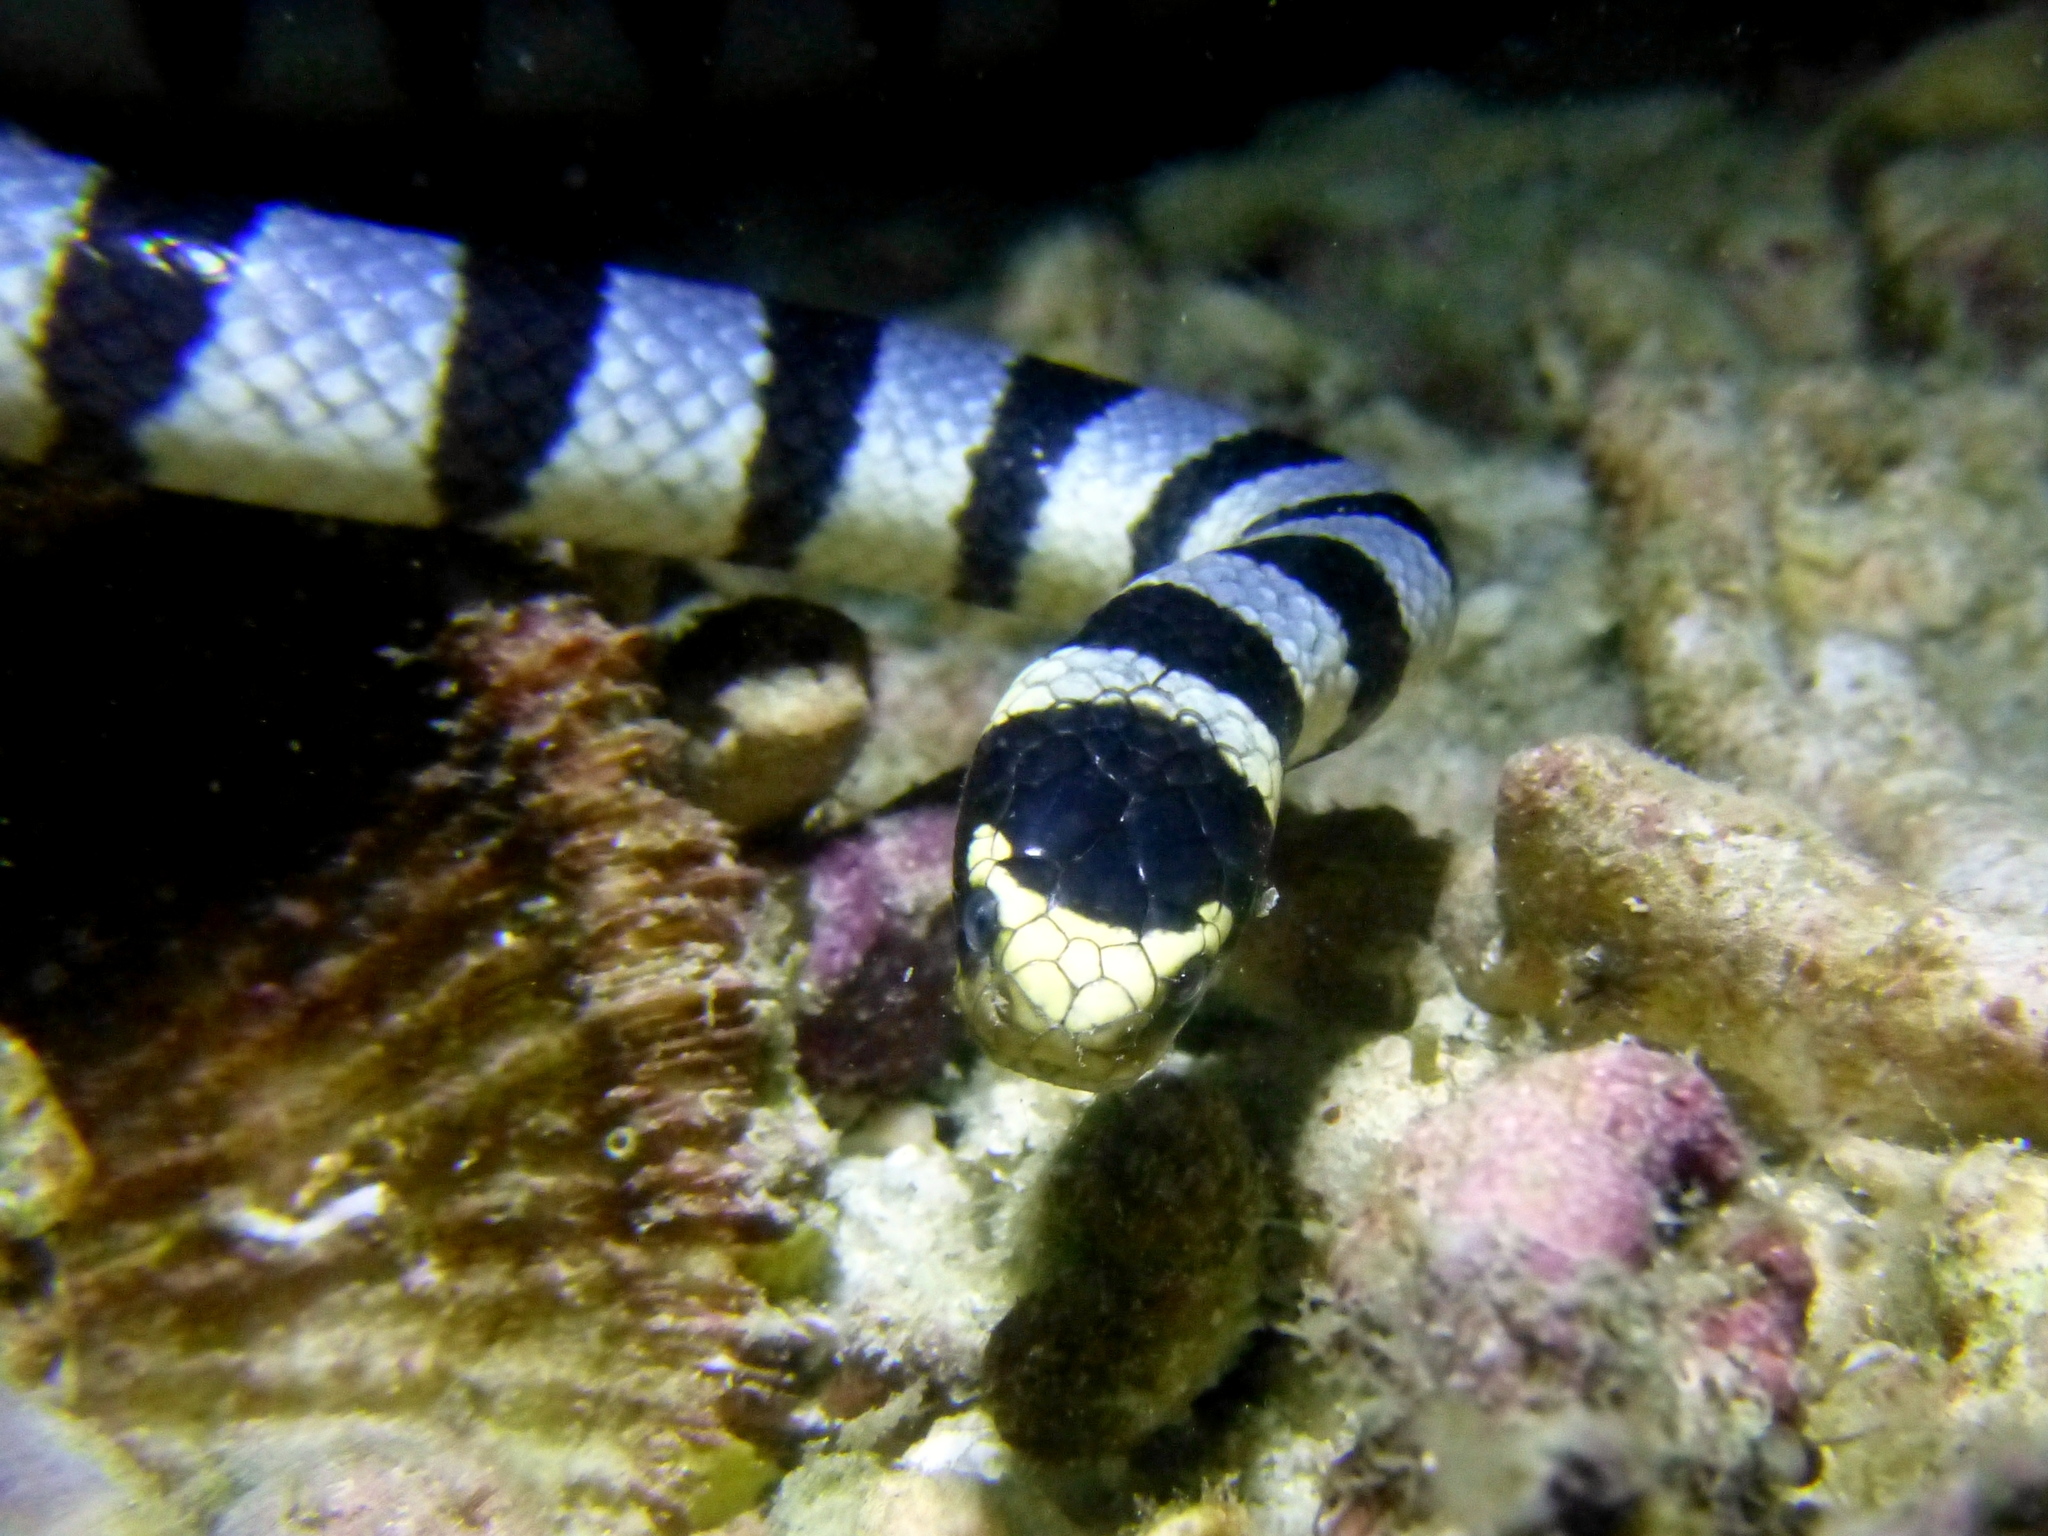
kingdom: Animalia
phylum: Chordata
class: Squamata
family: Elapidae
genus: Laticauda
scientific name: Laticauda colubrina
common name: Yellow-lipped sea krait
